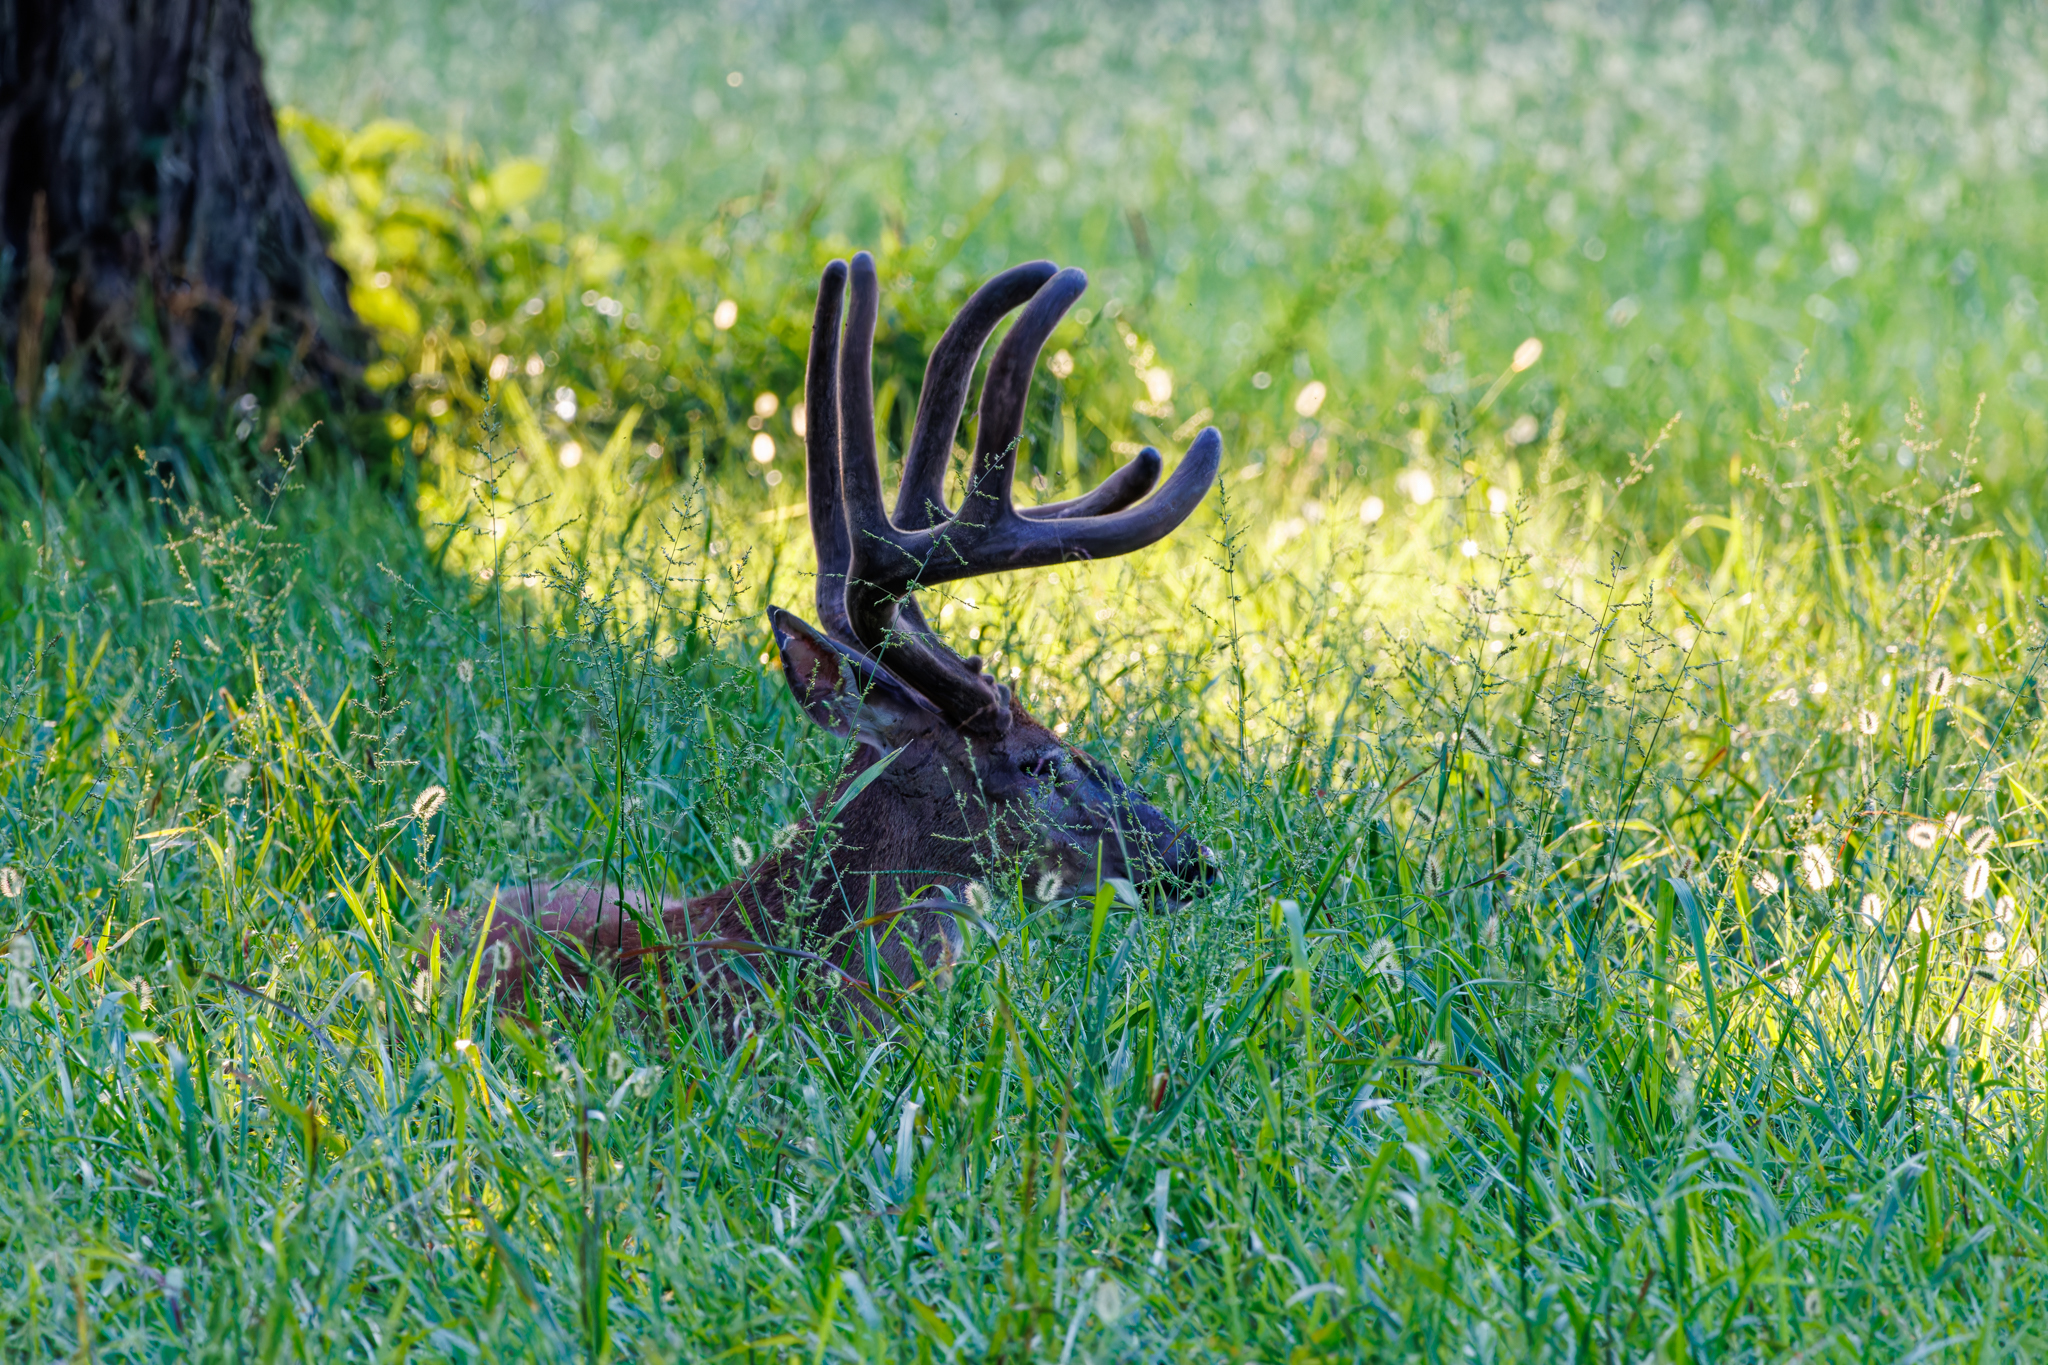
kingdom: Animalia
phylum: Chordata
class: Mammalia
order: Artiodactyla
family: Cervidae
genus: Odocoileus
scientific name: Odocoileus virginianus
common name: White-tailed deer
